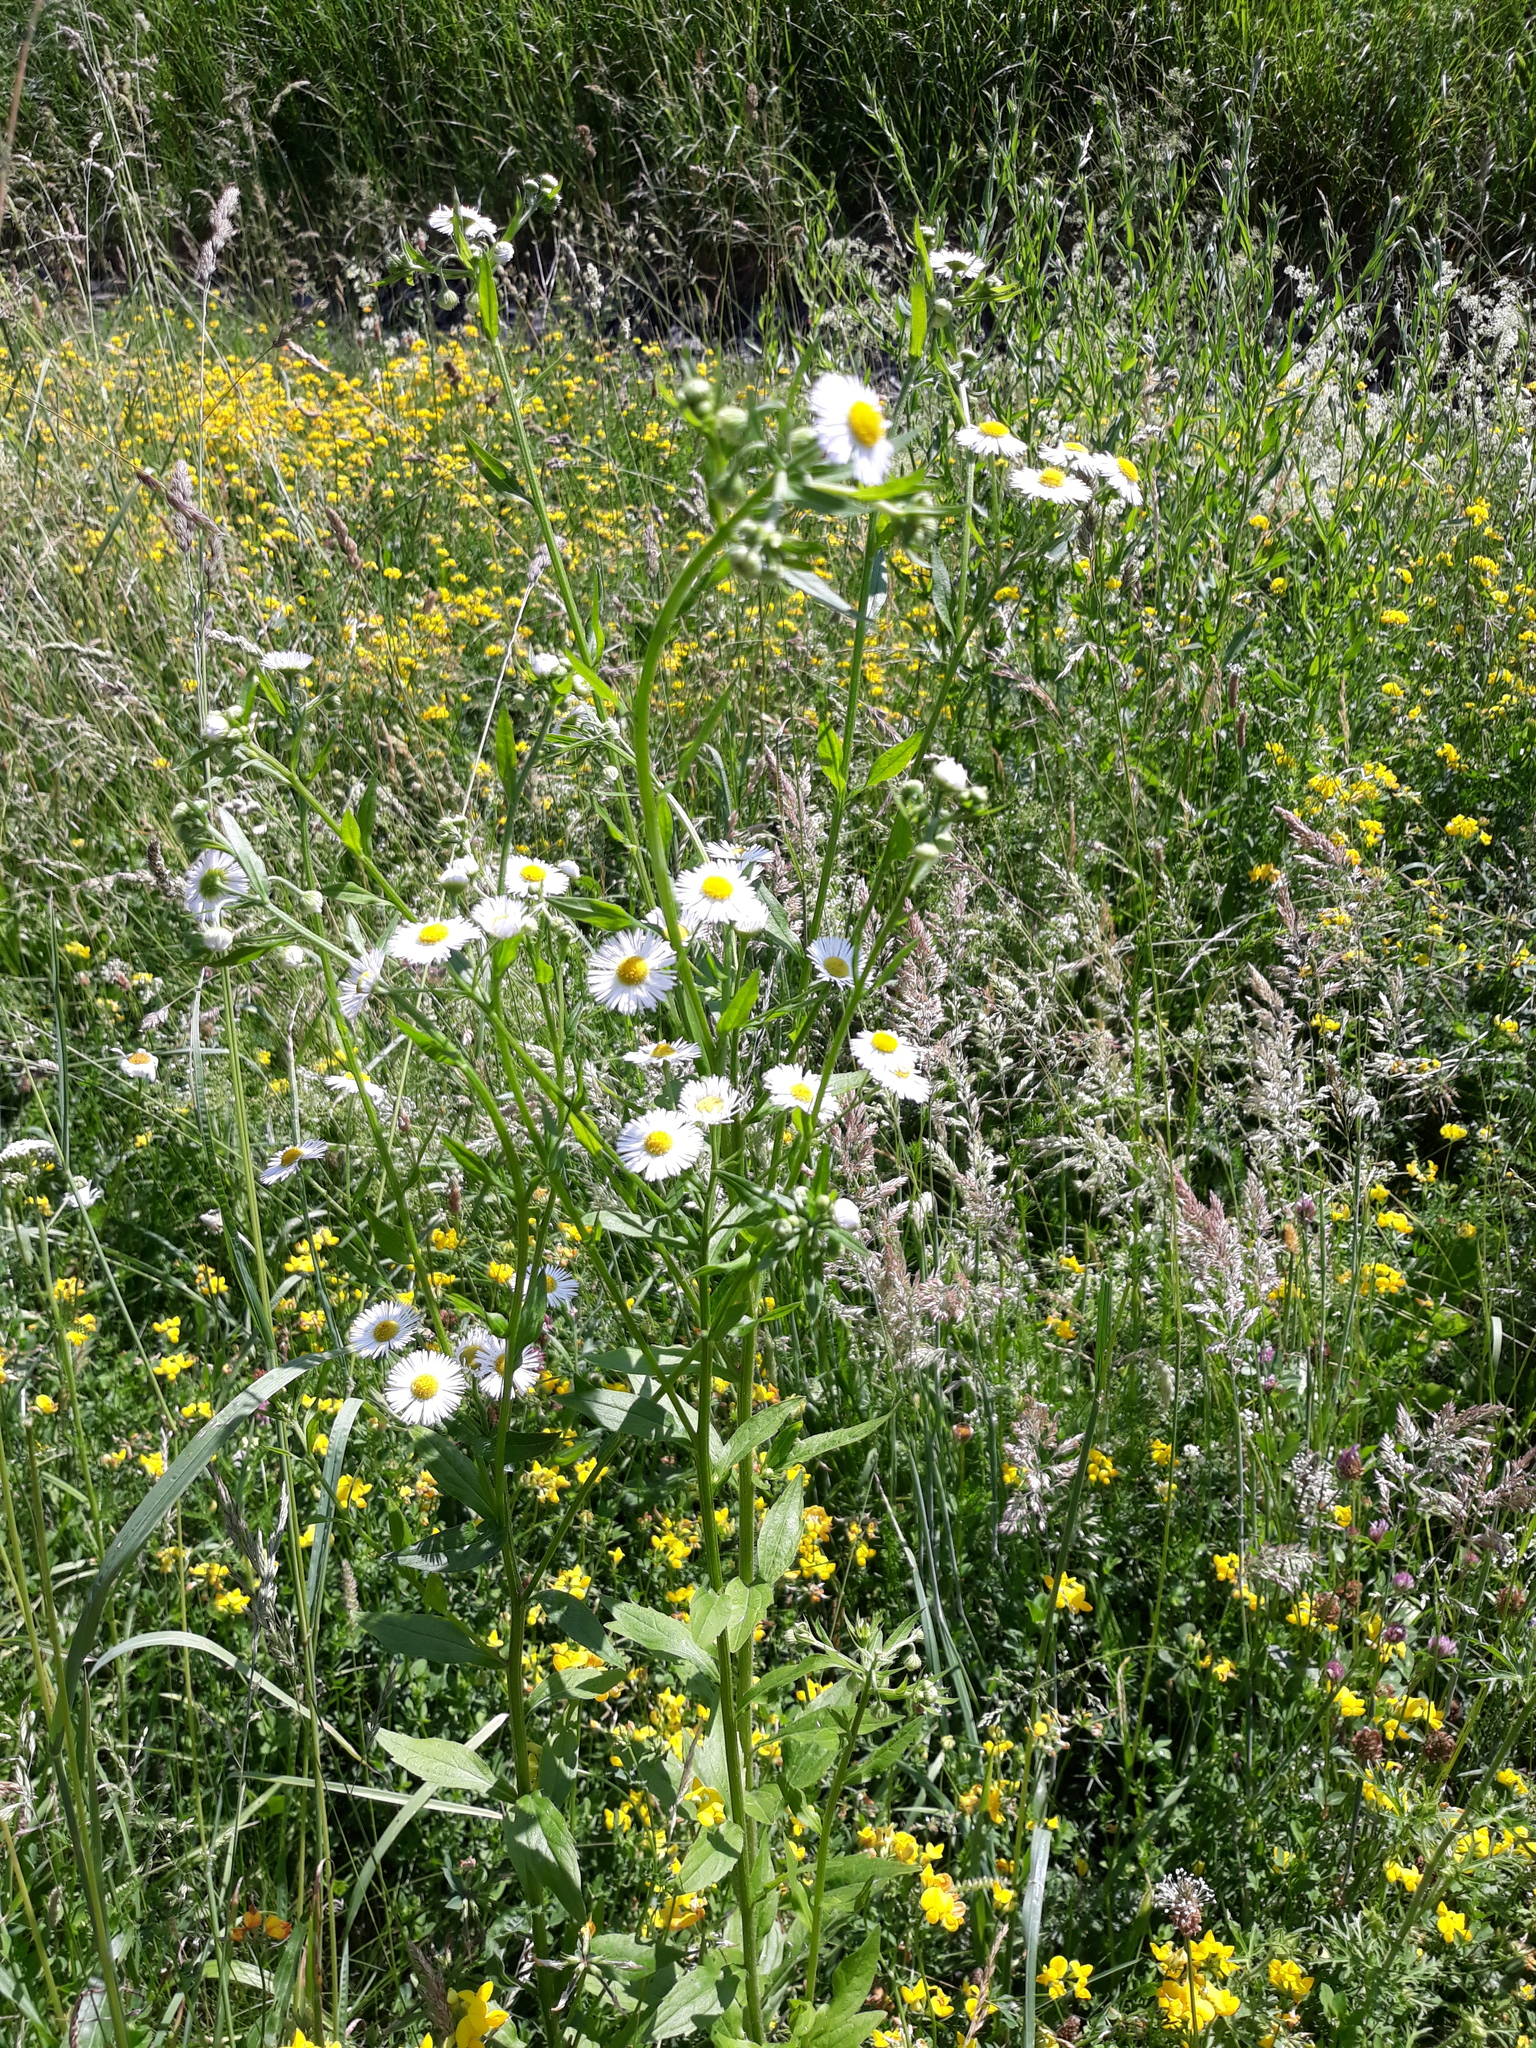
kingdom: Plantae
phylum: Tracheophyta
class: Magnoliopsida
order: Asterales
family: Asteraceae
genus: Erigeron
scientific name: Erigeron annuus
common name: Tall fleabane
